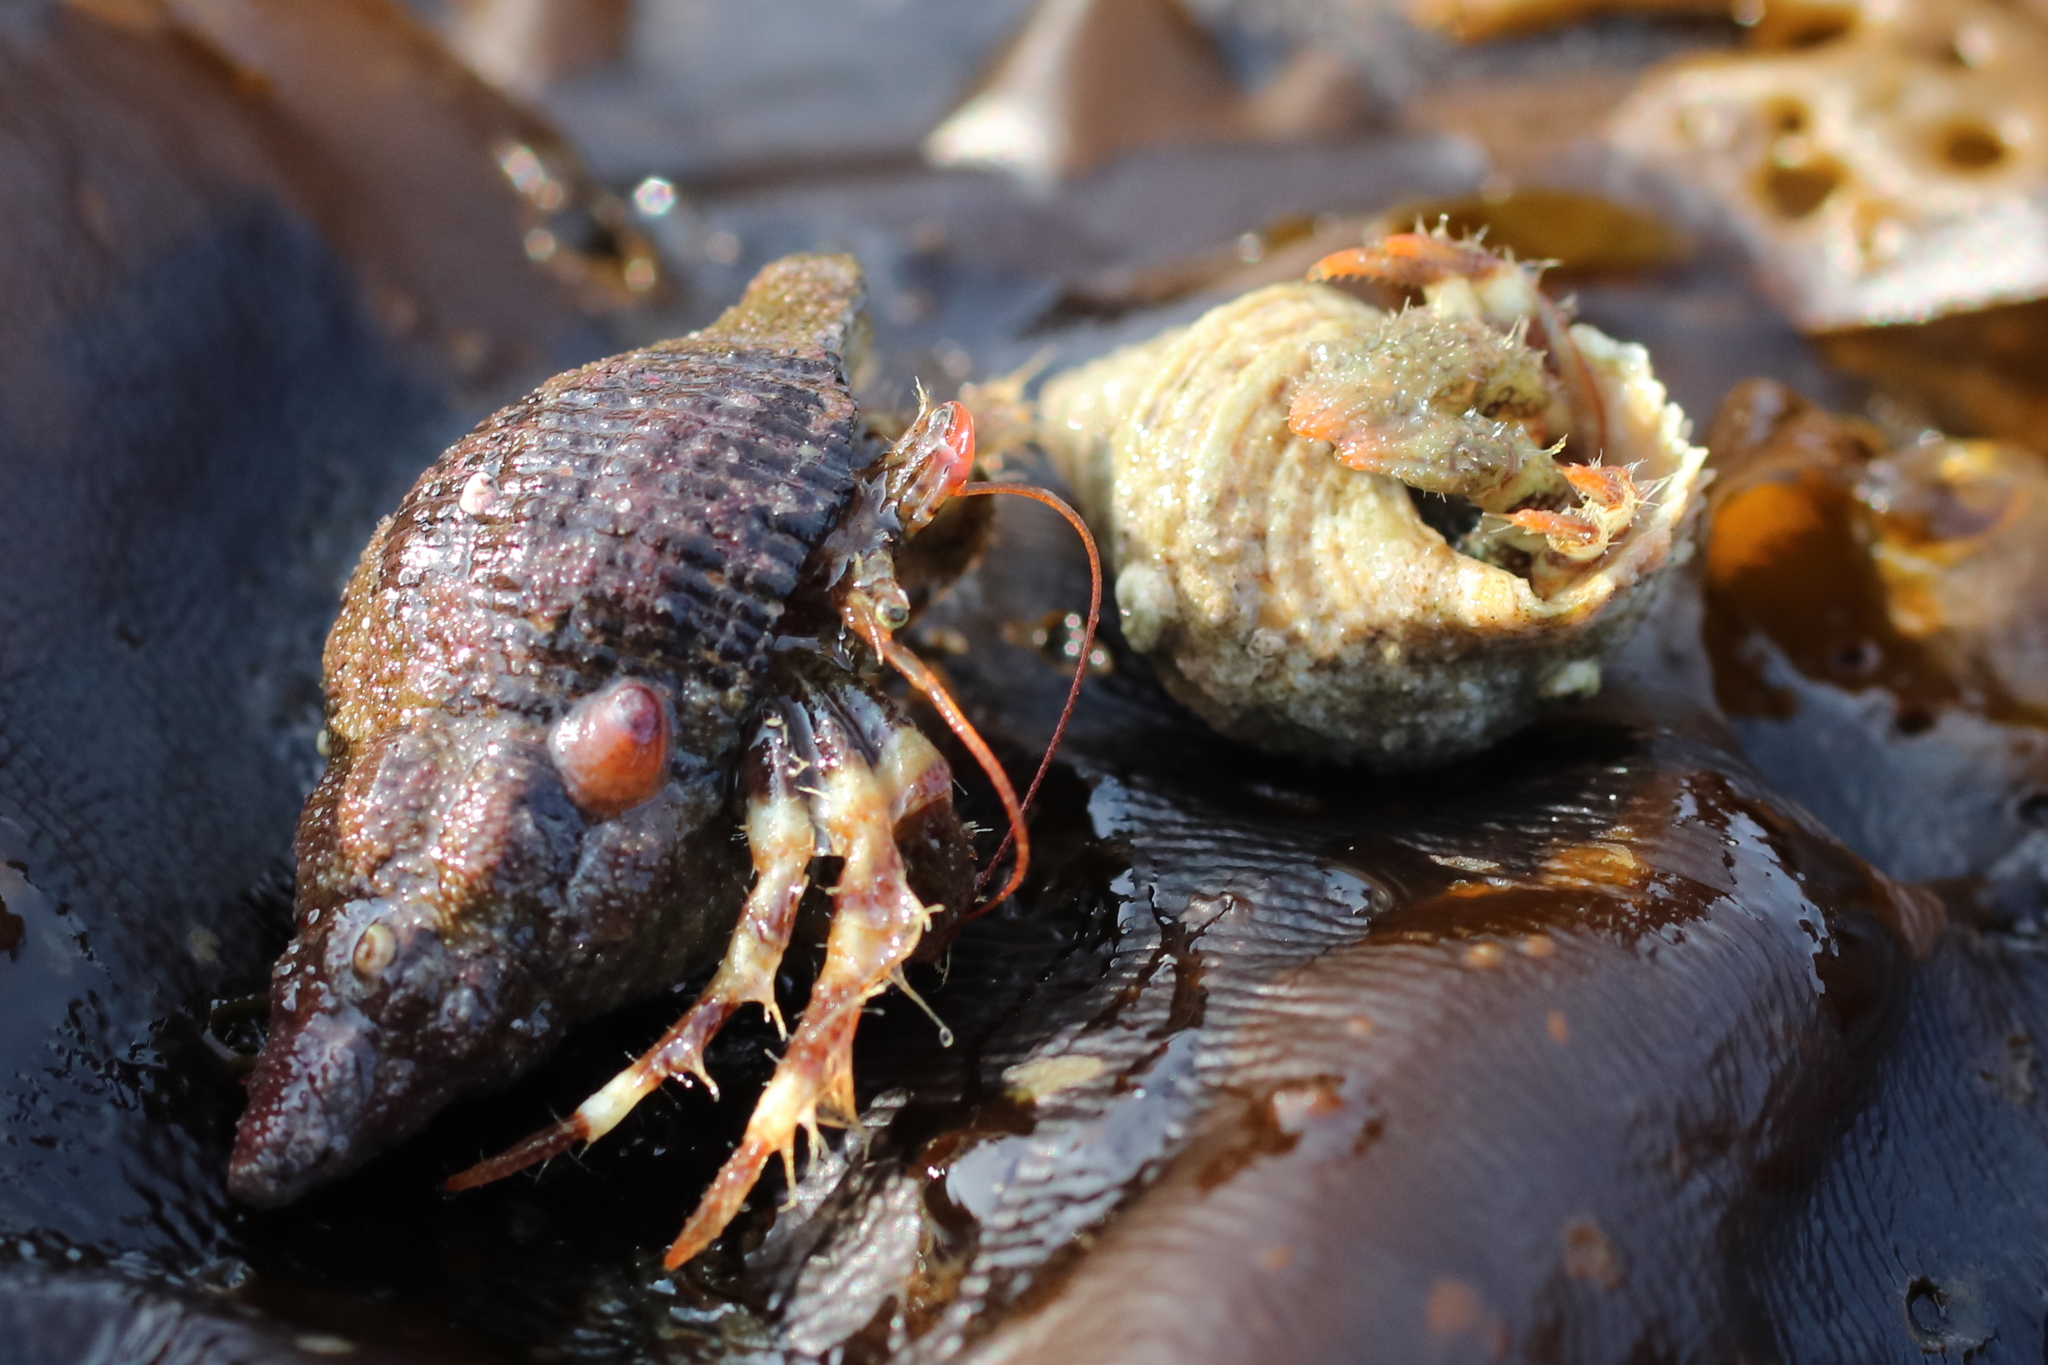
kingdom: Animalia
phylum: Arthropoda
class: Malacostraca
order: Decapoda
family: Paguridae
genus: Pagurus
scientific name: Pagurus caurinus
